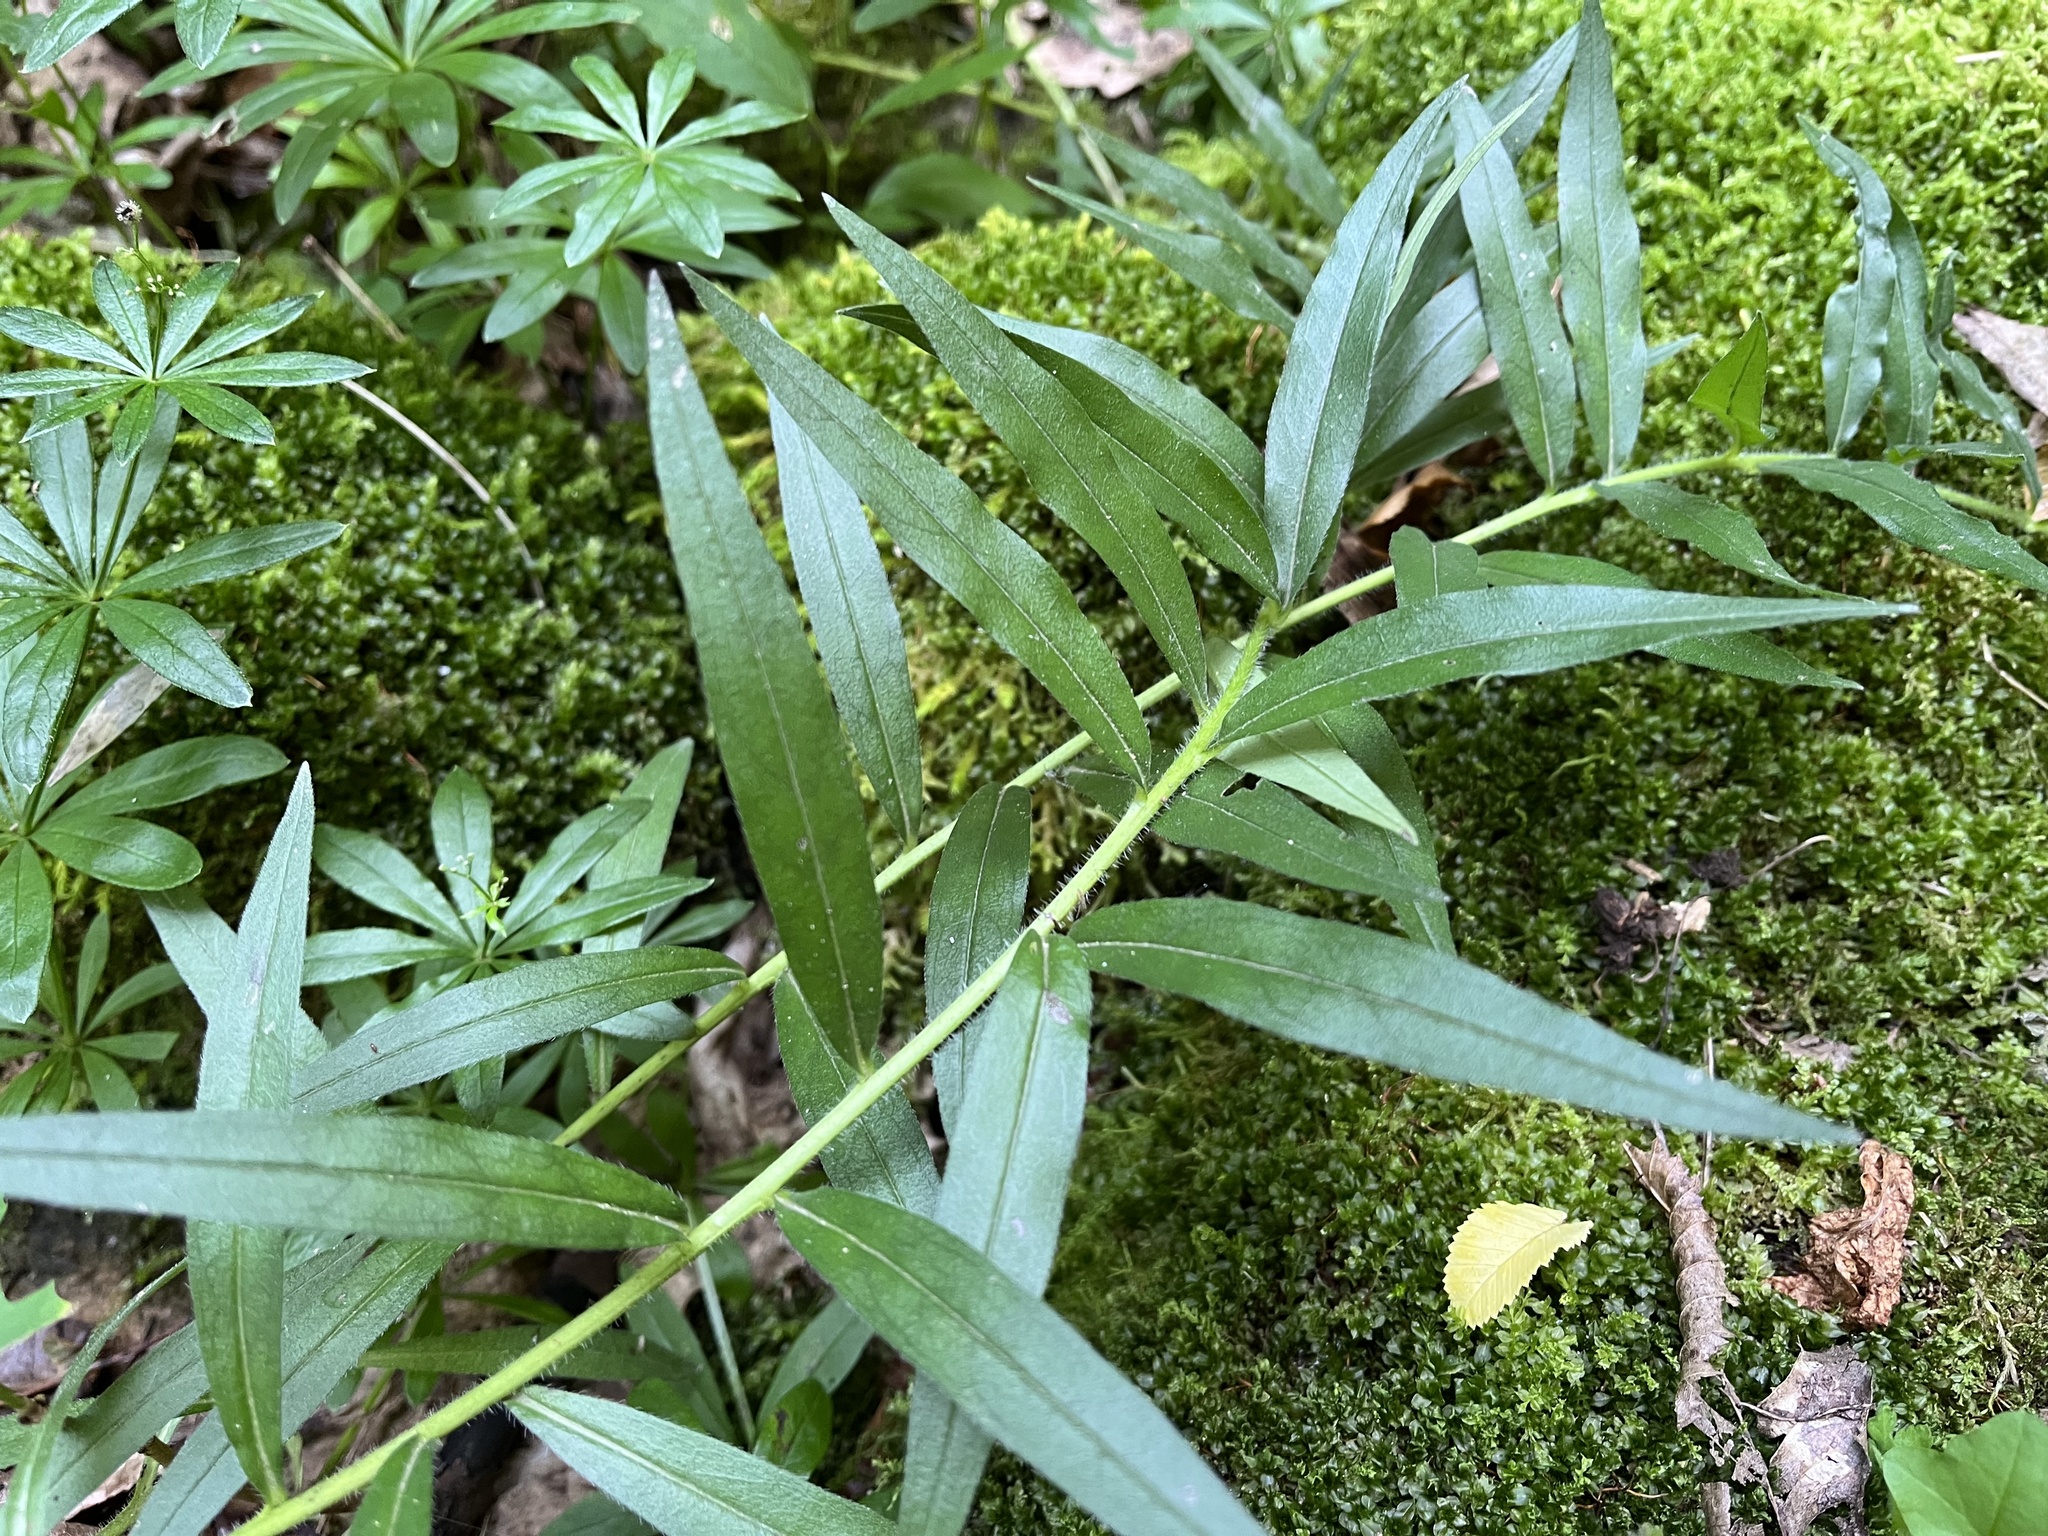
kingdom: Plantae
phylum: Tracheophyta
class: Magnoliopsida
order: Boraginales
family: Boraginaceae
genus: Aegonychon
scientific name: Aegonychon purpurocaeruleum
